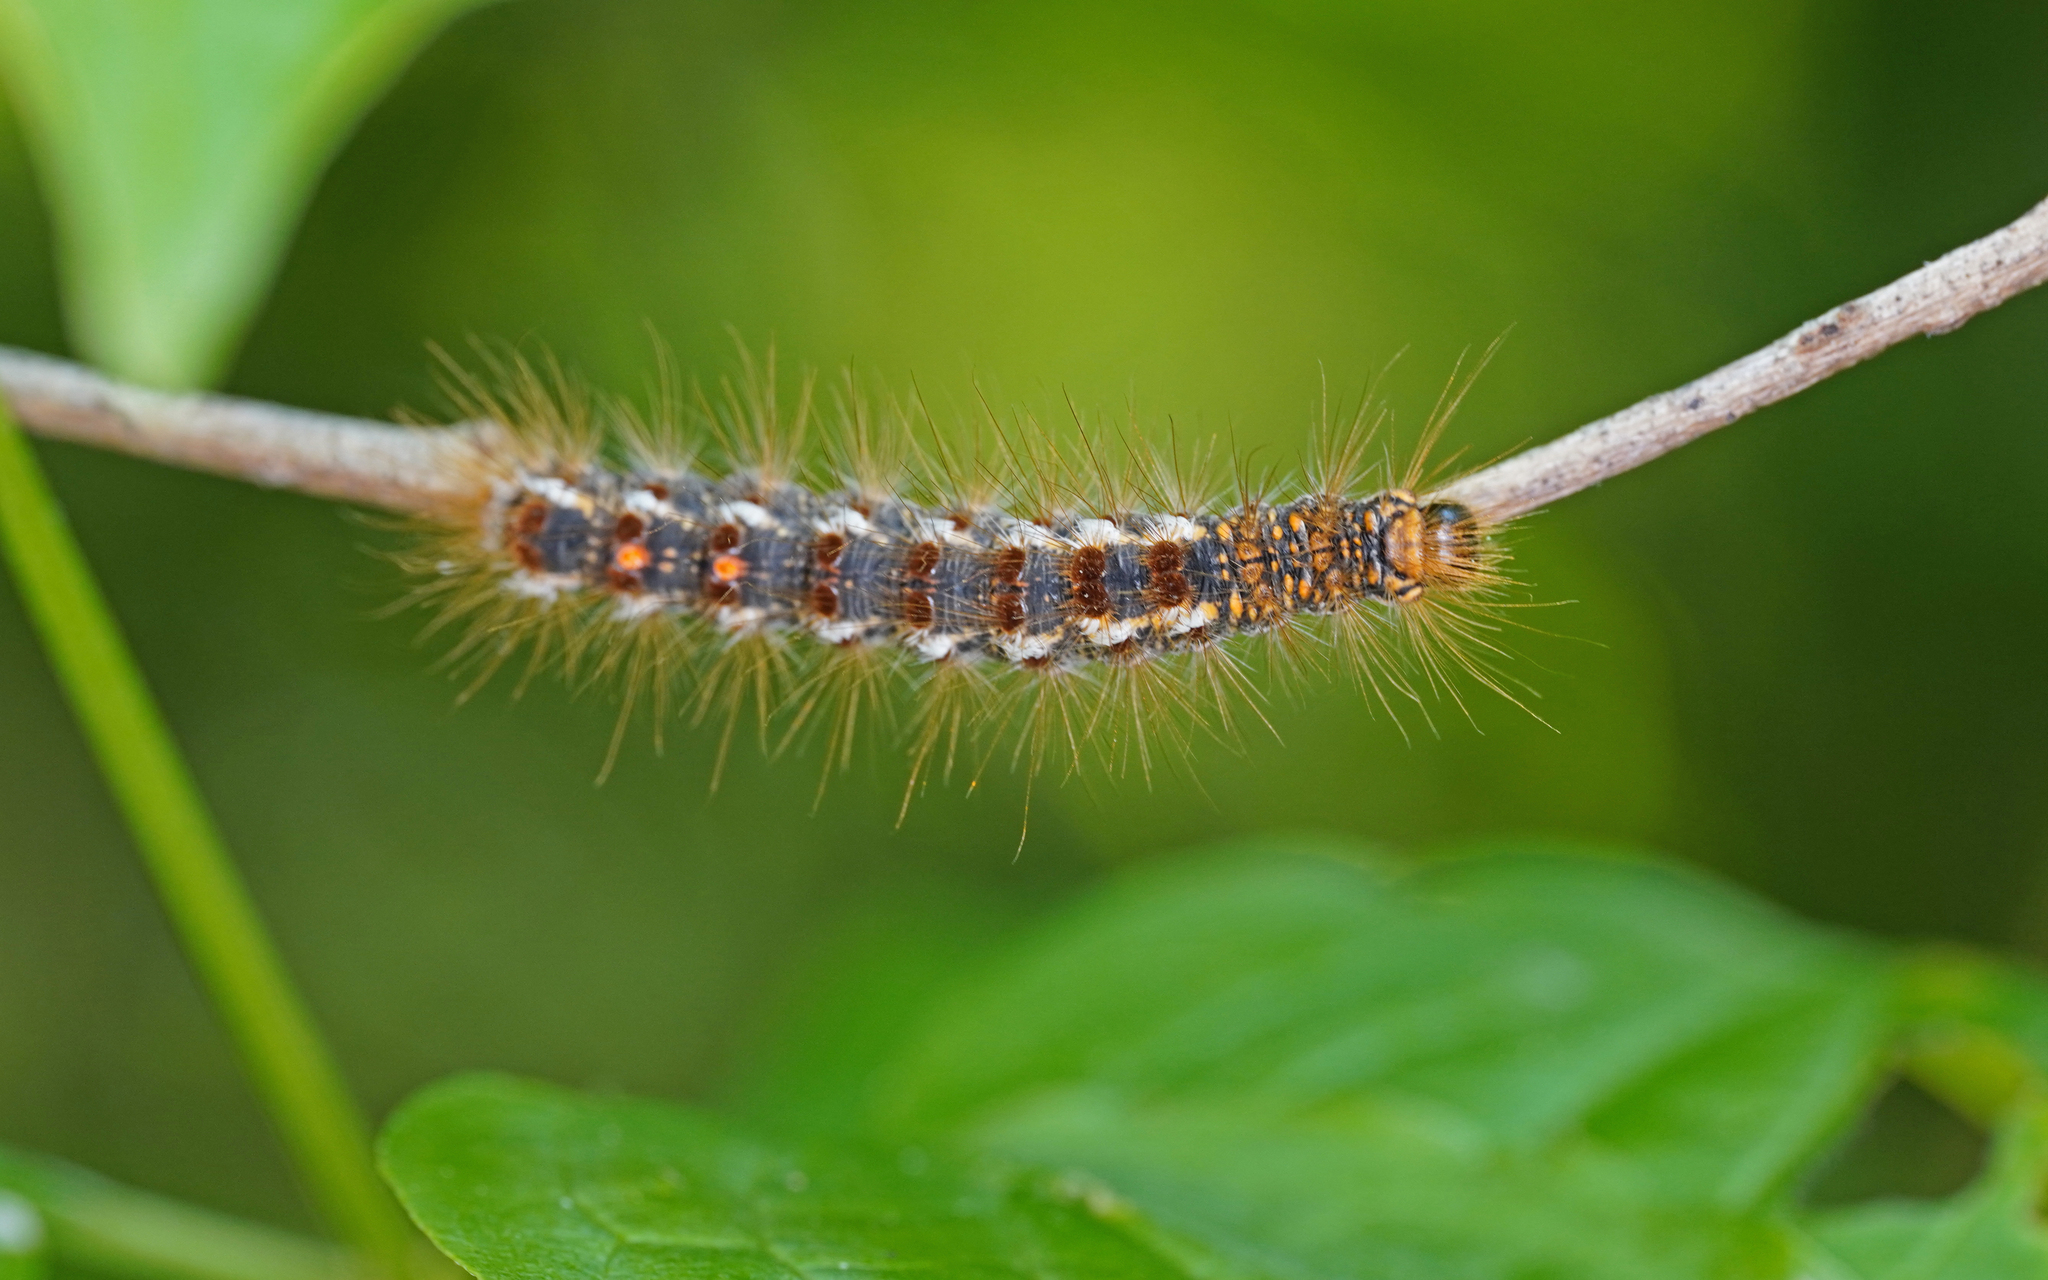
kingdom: Animalia
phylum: Arthropoda
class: Insecta
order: Lepidoptera
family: Erebidae
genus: Euproctis
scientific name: Euproctis chrysorrhoea
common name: Brown-tail
